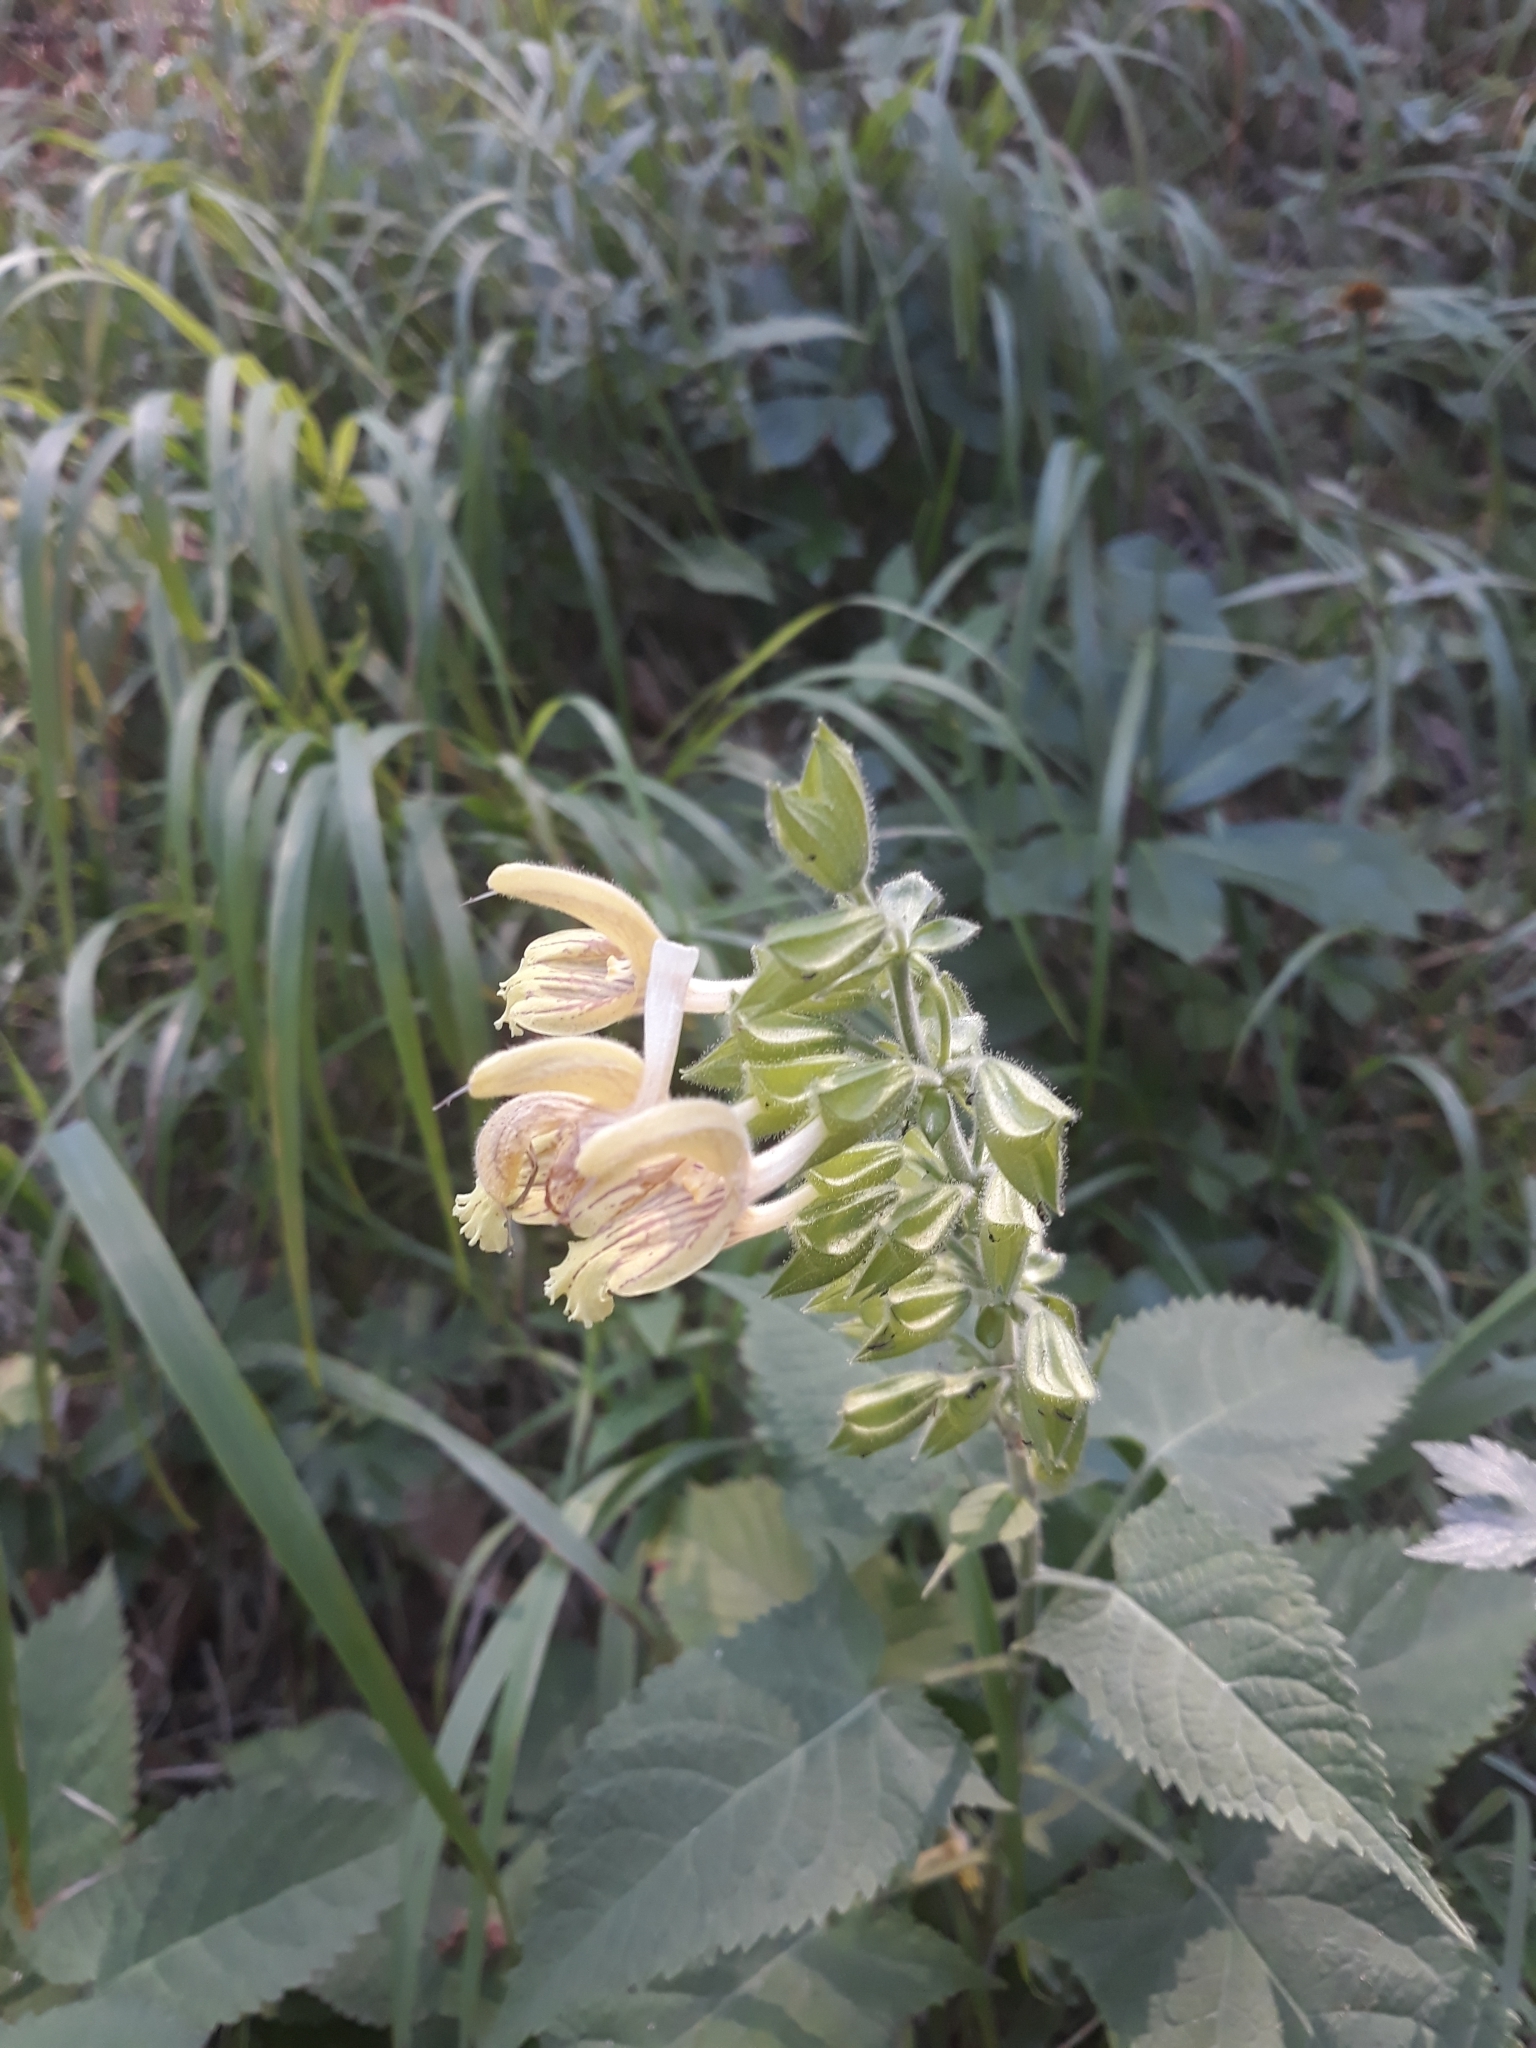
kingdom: Plantae
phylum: Tracheophyta
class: Magnoliopsida
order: Lamiales
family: Lamiaceae
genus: Salvia
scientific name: Salvia glutinosa
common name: Sticky clary
